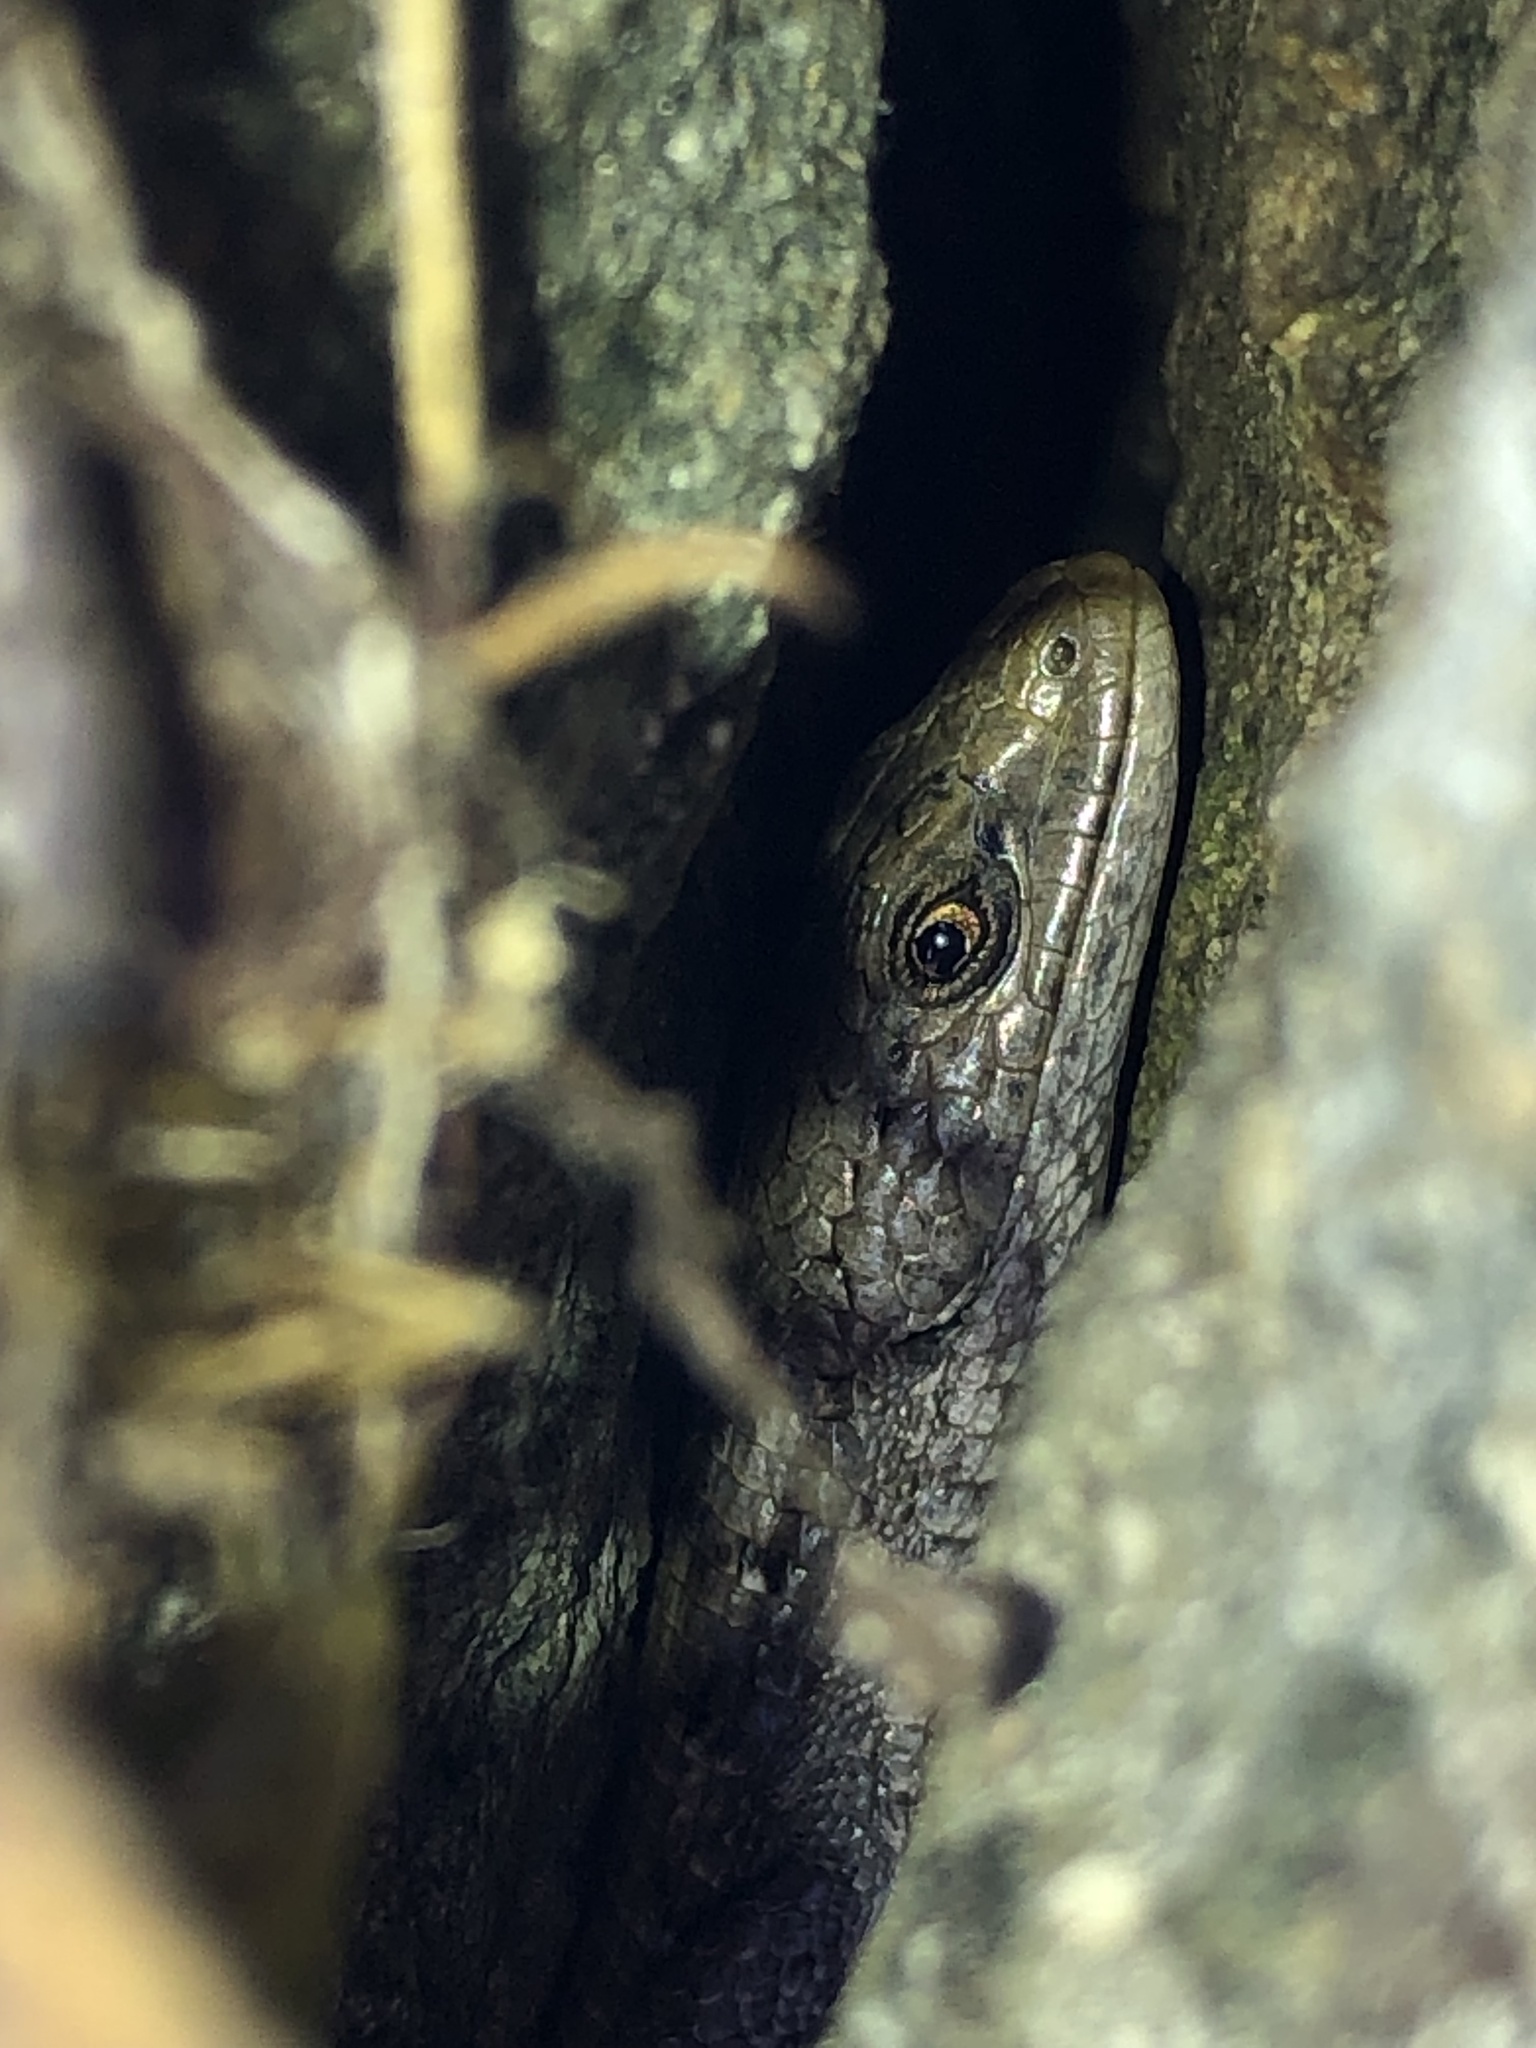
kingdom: Animalia
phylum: Chordata
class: Squamata
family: Anguidae
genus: Elgaria
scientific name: Elgaria coerulea
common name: Northern alligator lizard
